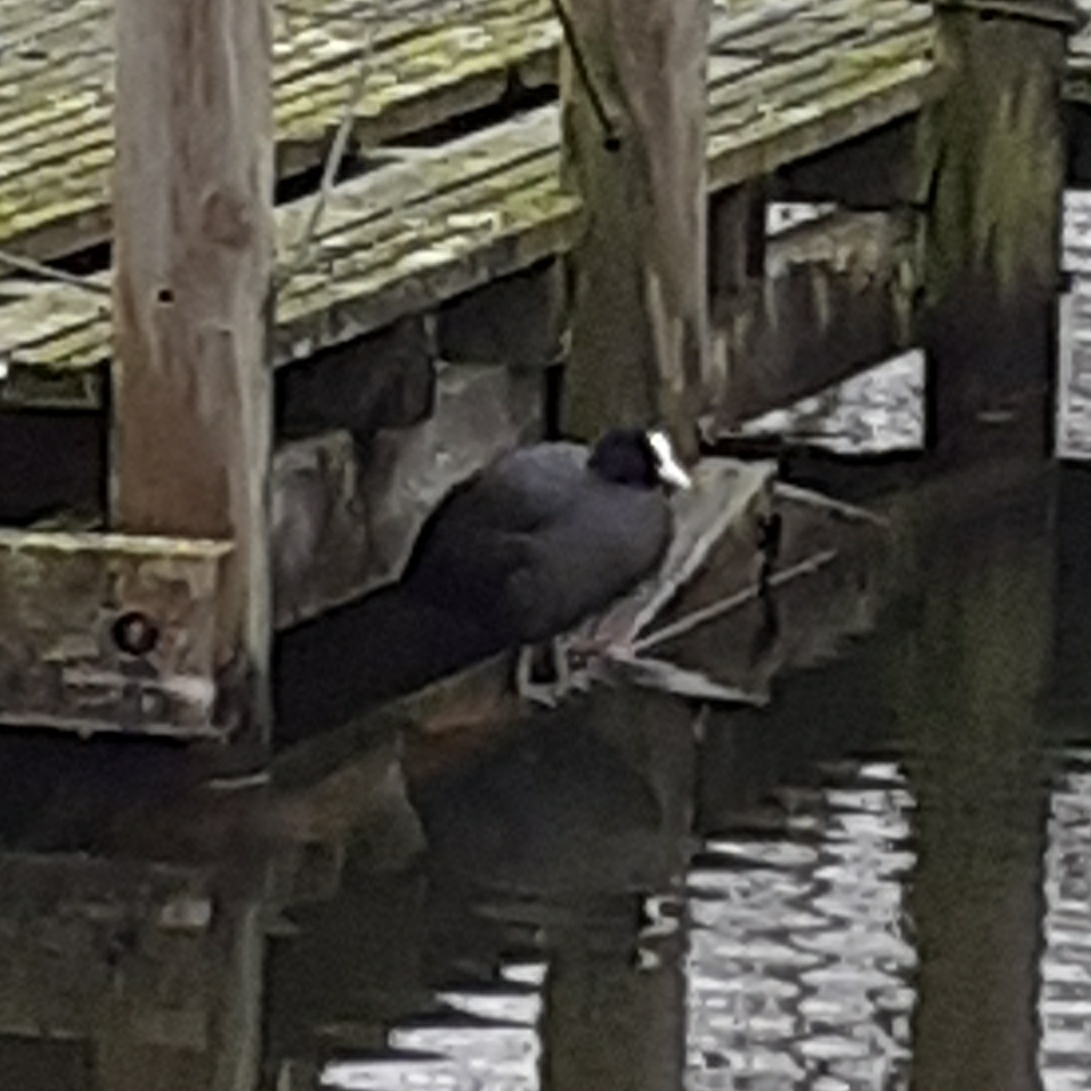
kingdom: Animalia
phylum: Chordata
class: Aves
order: Gruiformes
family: Rallidae
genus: Fulica
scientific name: Fulica atra
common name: Eurasian coot
